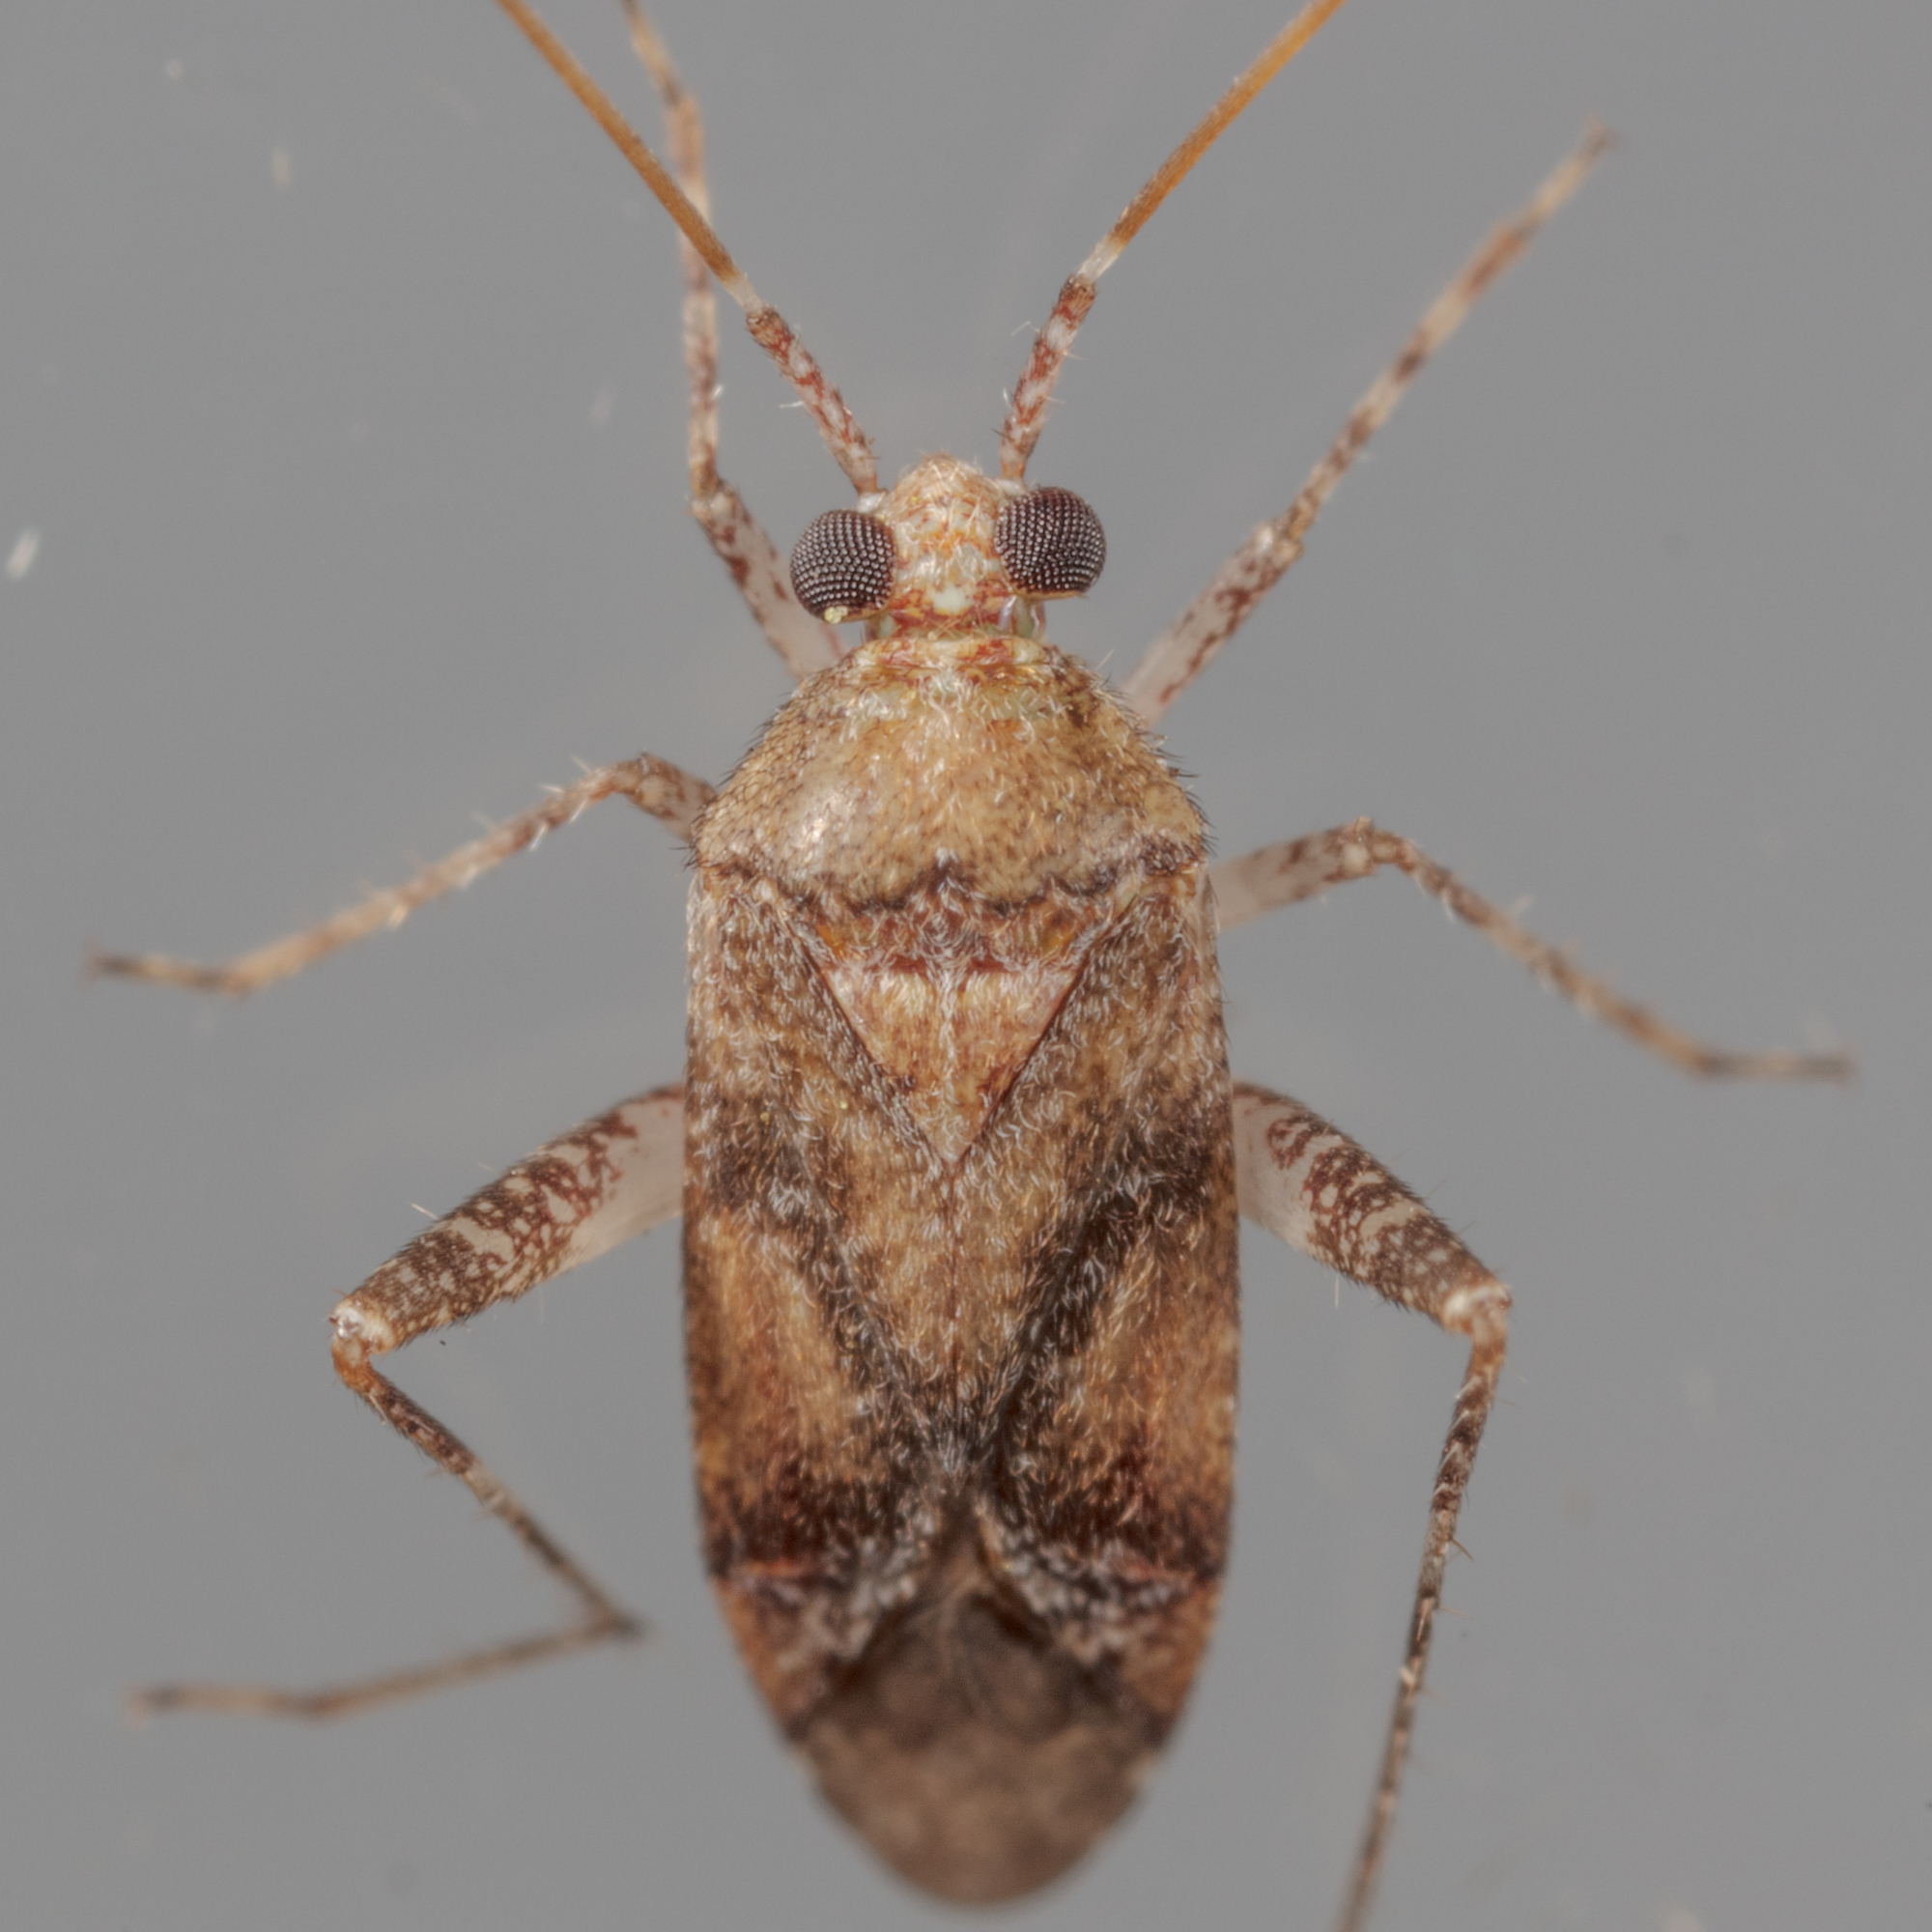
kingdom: Animalia
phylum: Arthropoda
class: Insecta
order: Hemiptera
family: Miridae
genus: Phytocoris
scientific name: Phytocoris breviusculus
